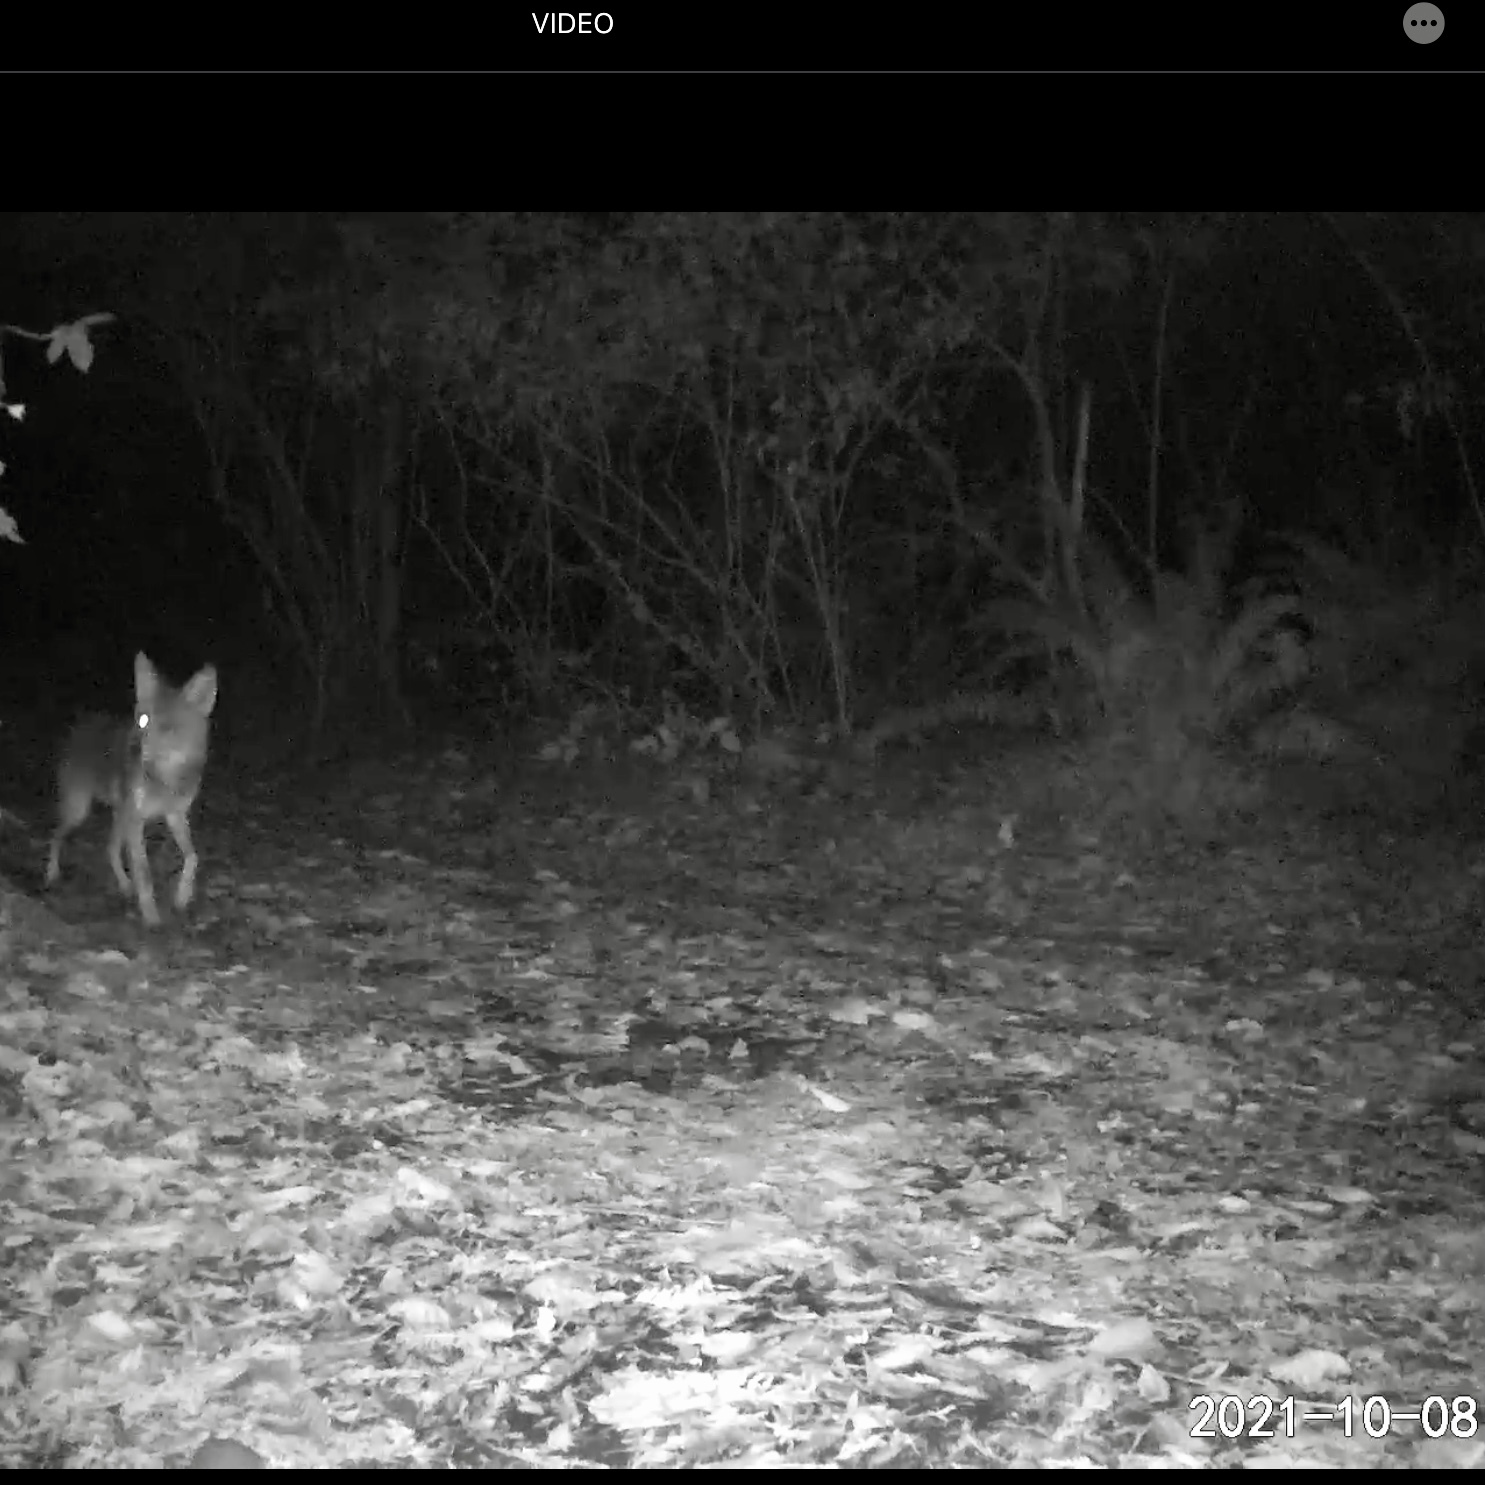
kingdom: Animalia
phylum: Chordata
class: Mammalia
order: Carnivora
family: Canidae
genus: Canis
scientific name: Canis latrans
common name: Coyote
